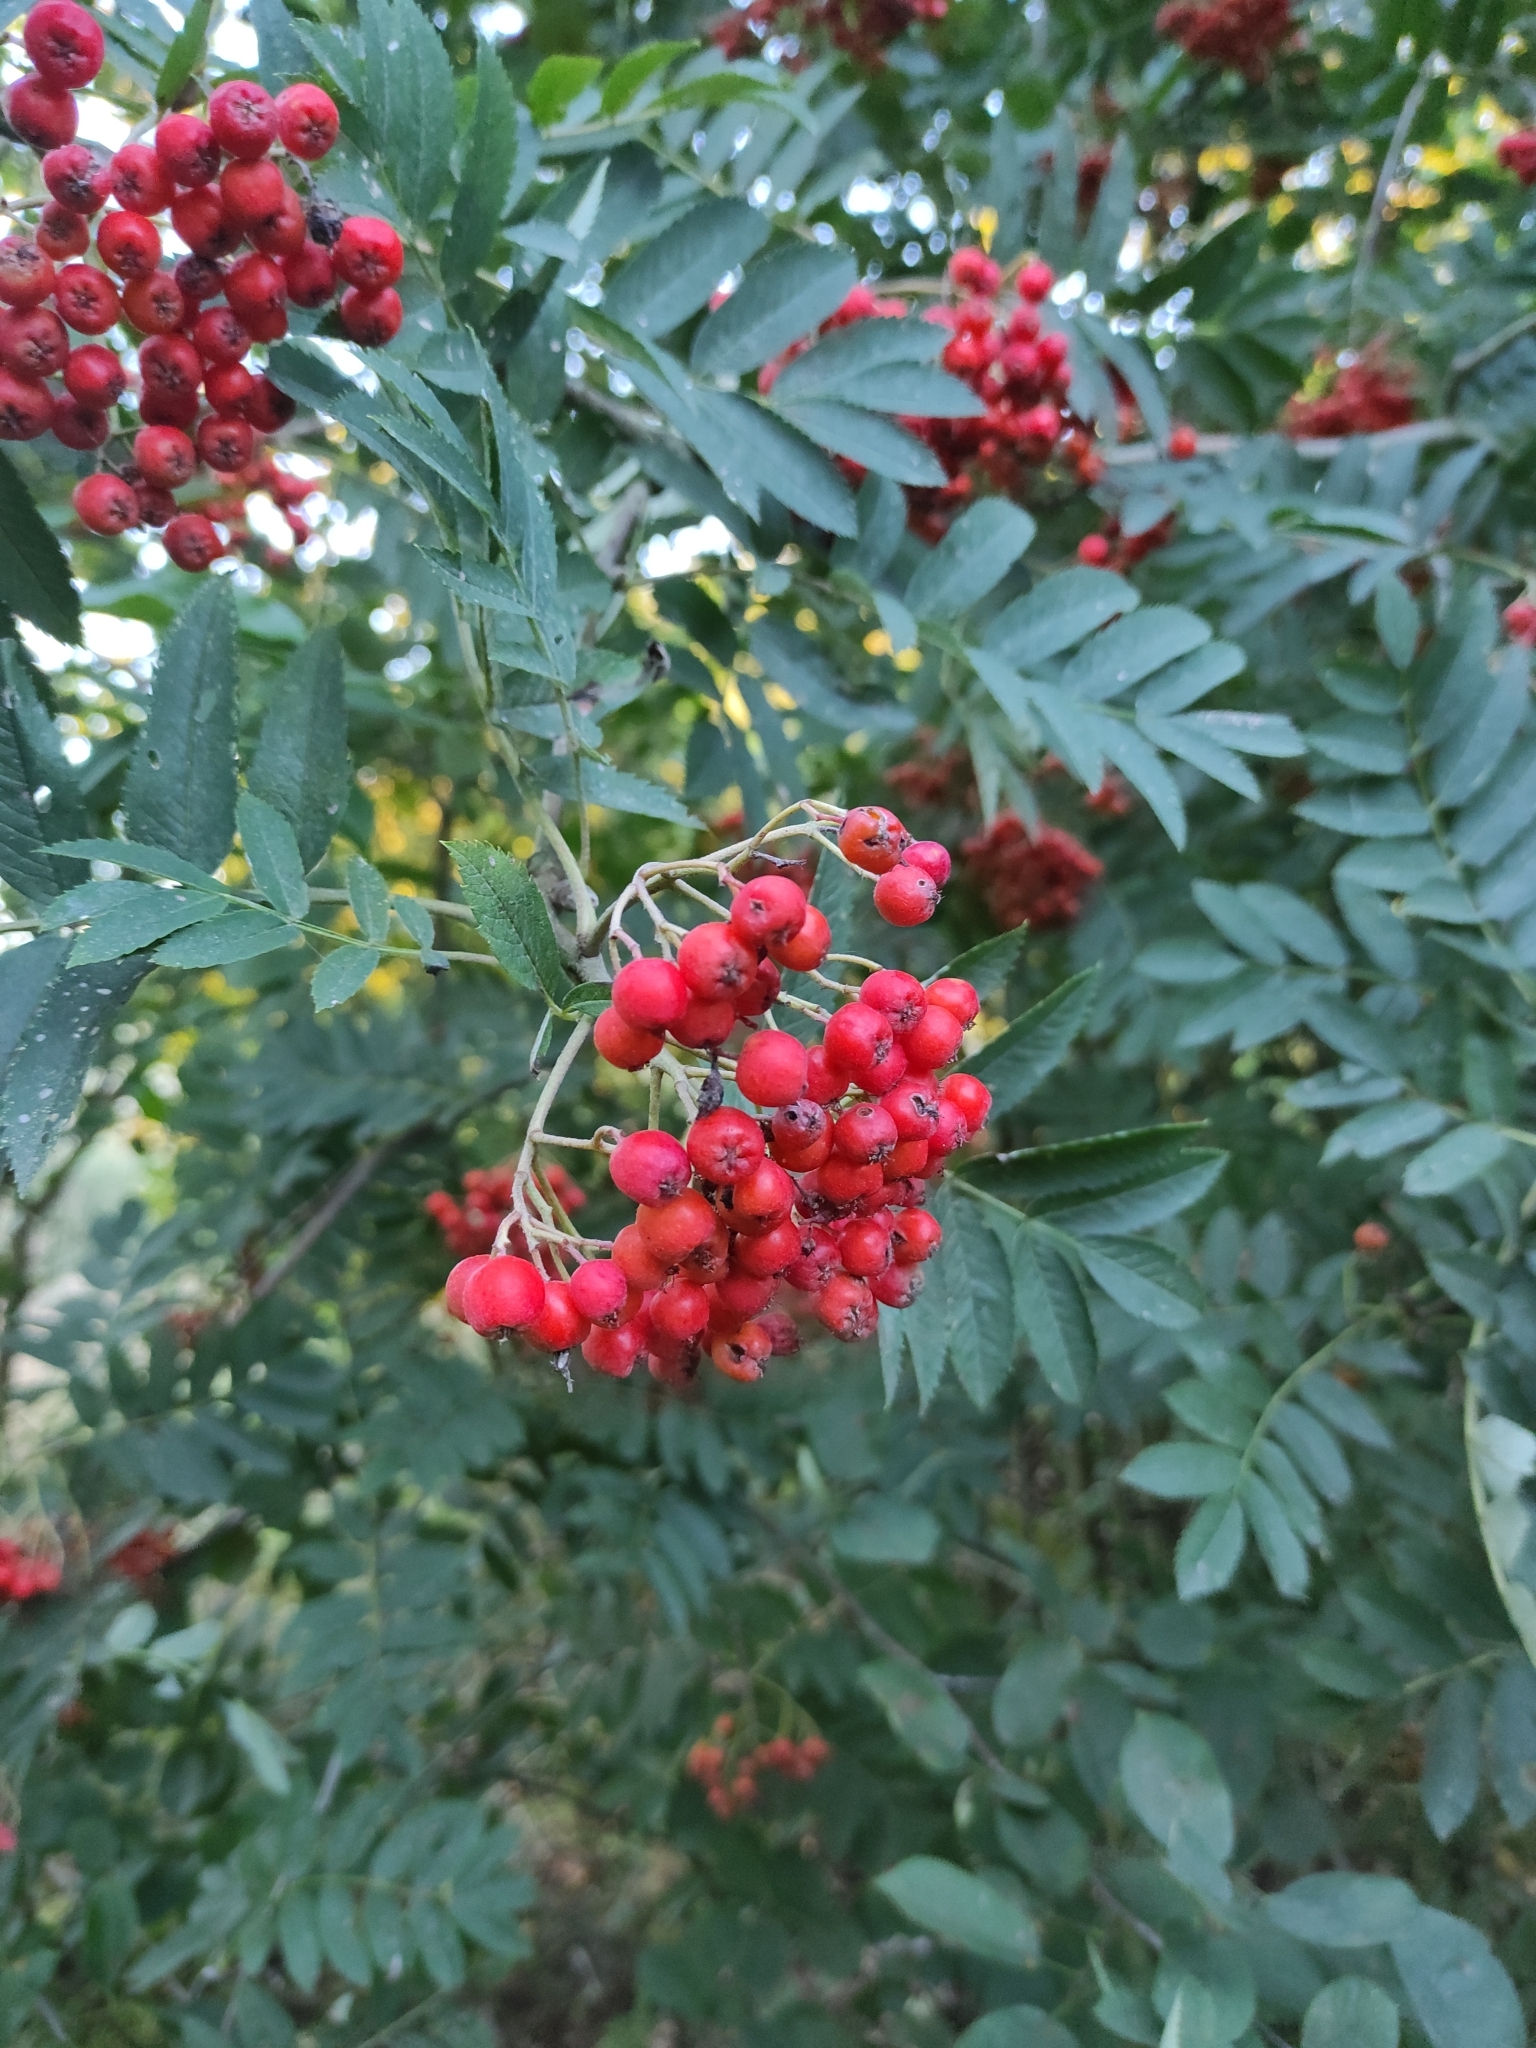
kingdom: Plantae
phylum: Tracheophyta
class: Magnoliopsida
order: Rosales
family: Rosaceae
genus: Sorbus
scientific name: Sorbus aucuparia
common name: Rowan
